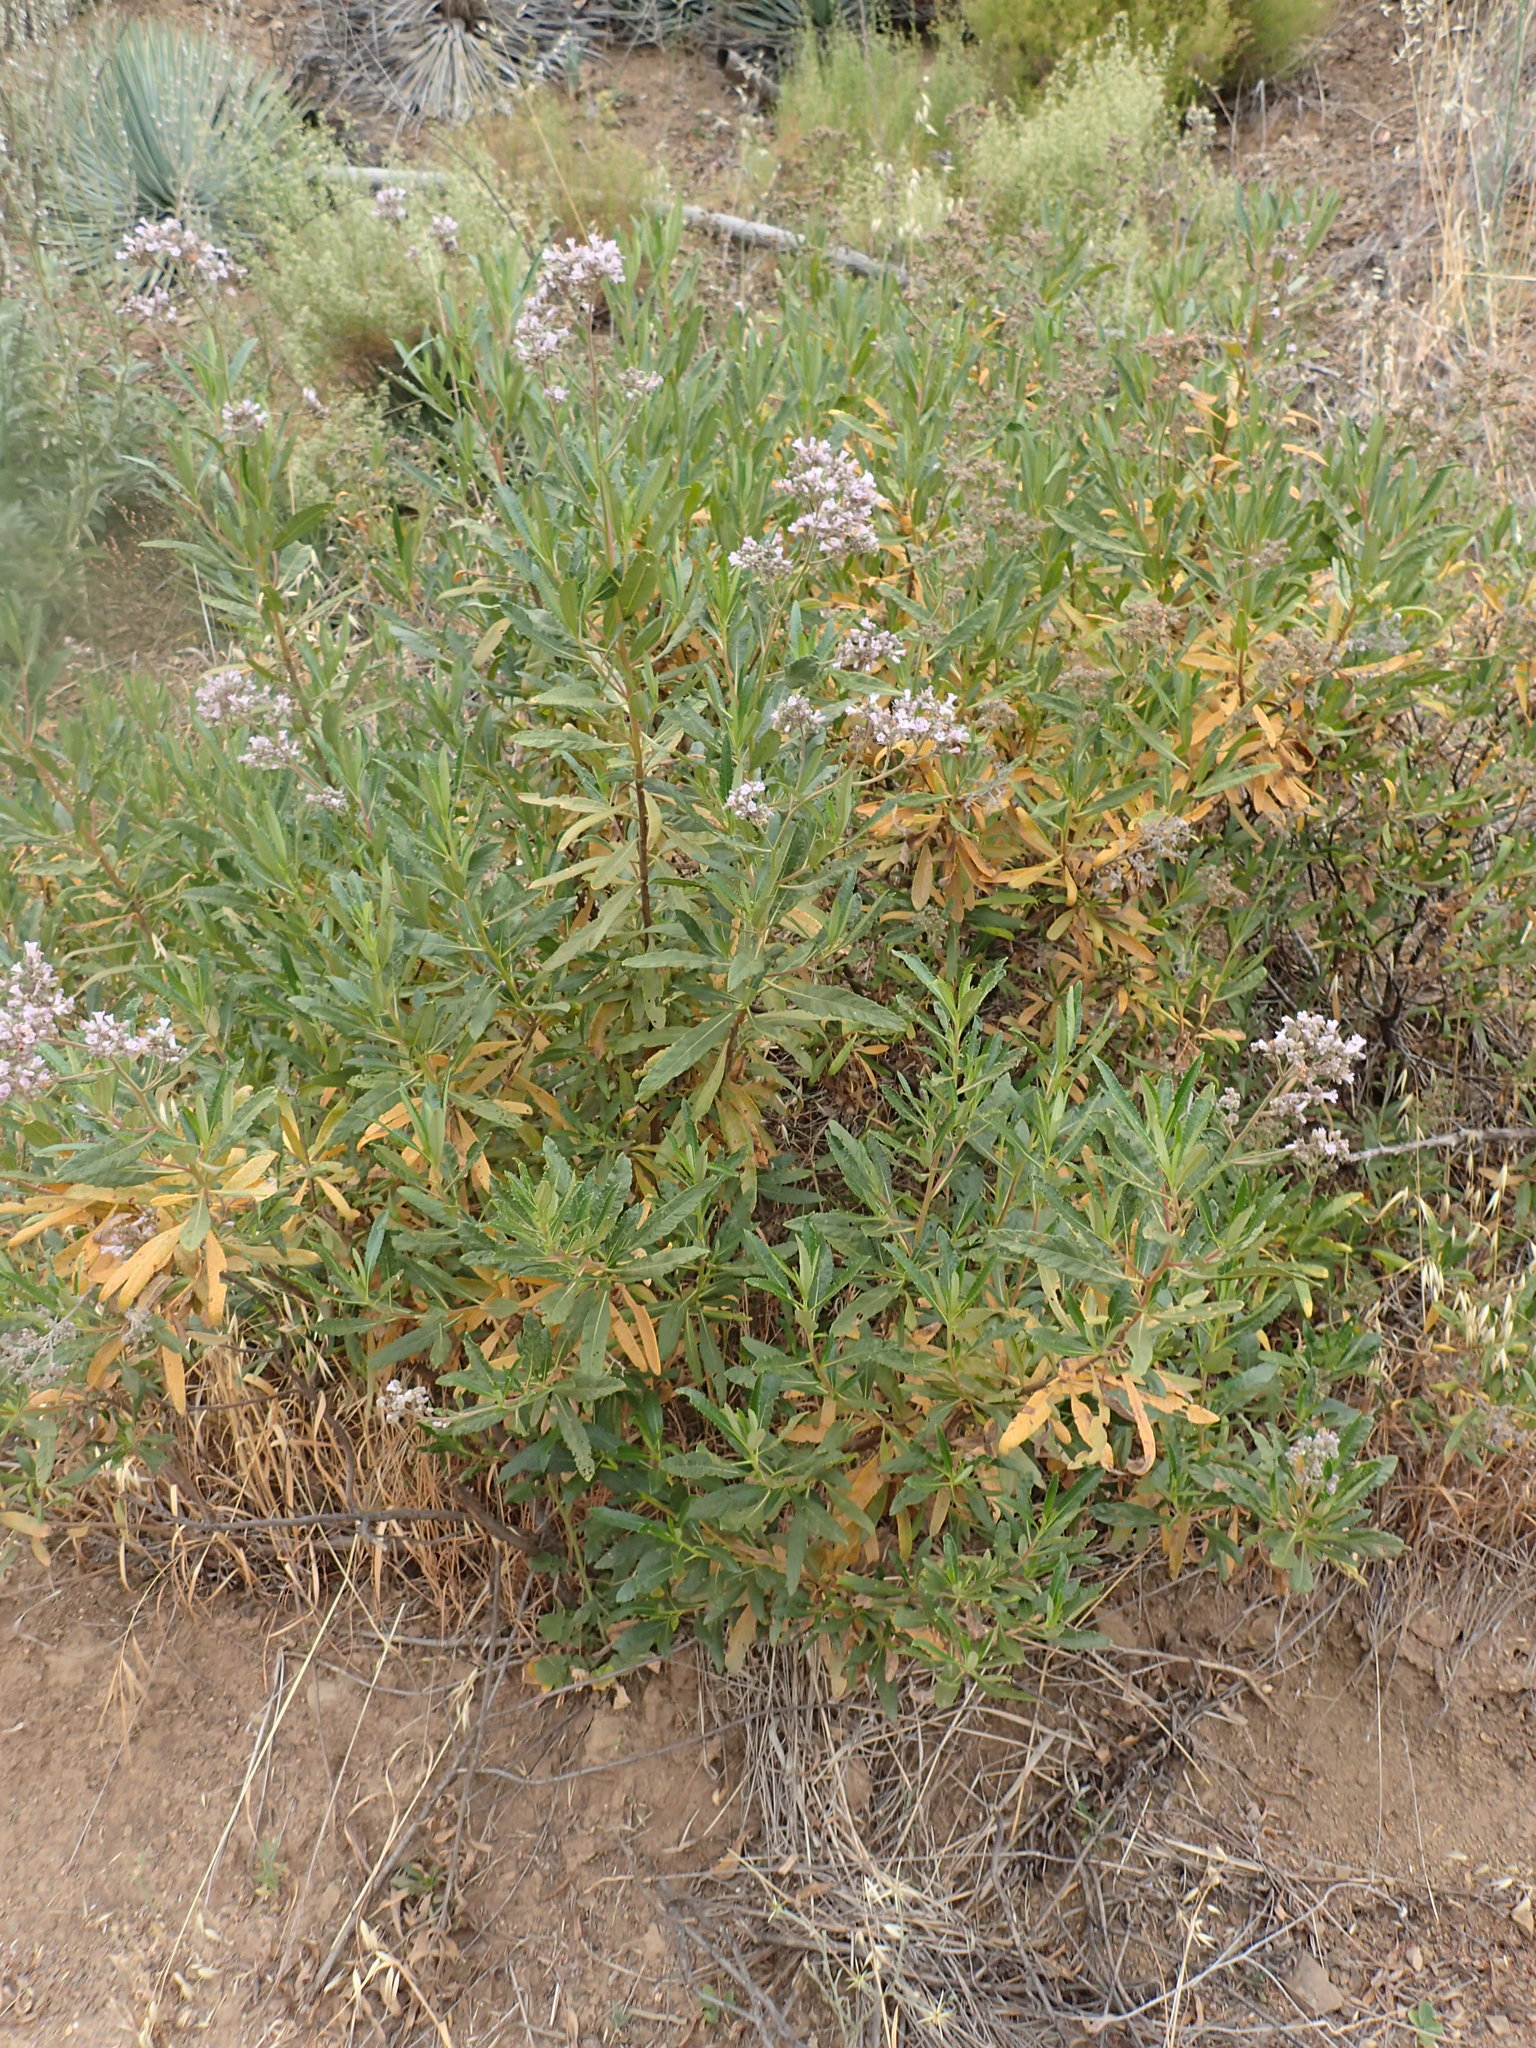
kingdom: Plantae
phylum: Tracheophyta
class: Magnoliopsida
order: Boraginales
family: Namaceae
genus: Eriodictyon
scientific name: Eriodictyon crassifolium
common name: Thick-leaf yerba-santa
